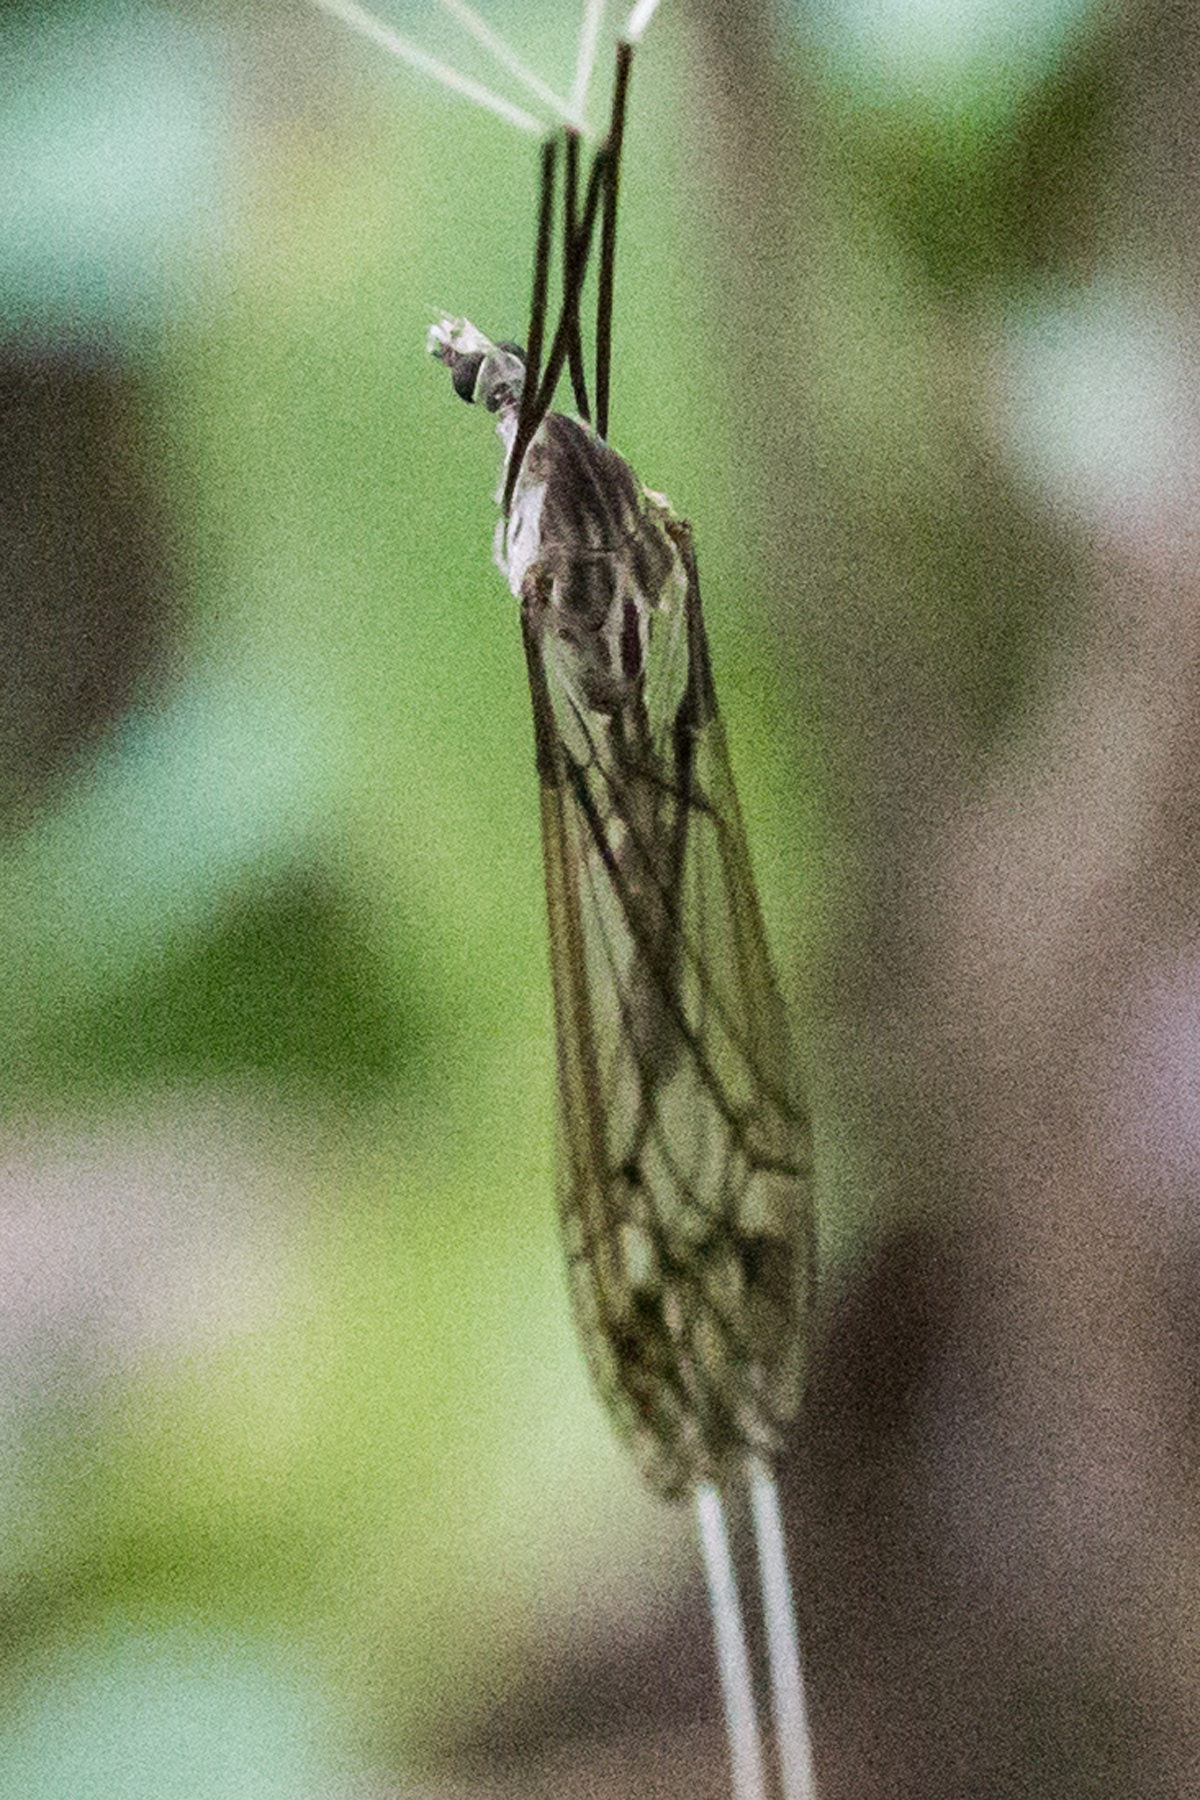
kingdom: Animalia
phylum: Arthropoda
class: Insecta
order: Diptera
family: Tipulidae
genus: Brachypremna
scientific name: Brachypremna dispellens
